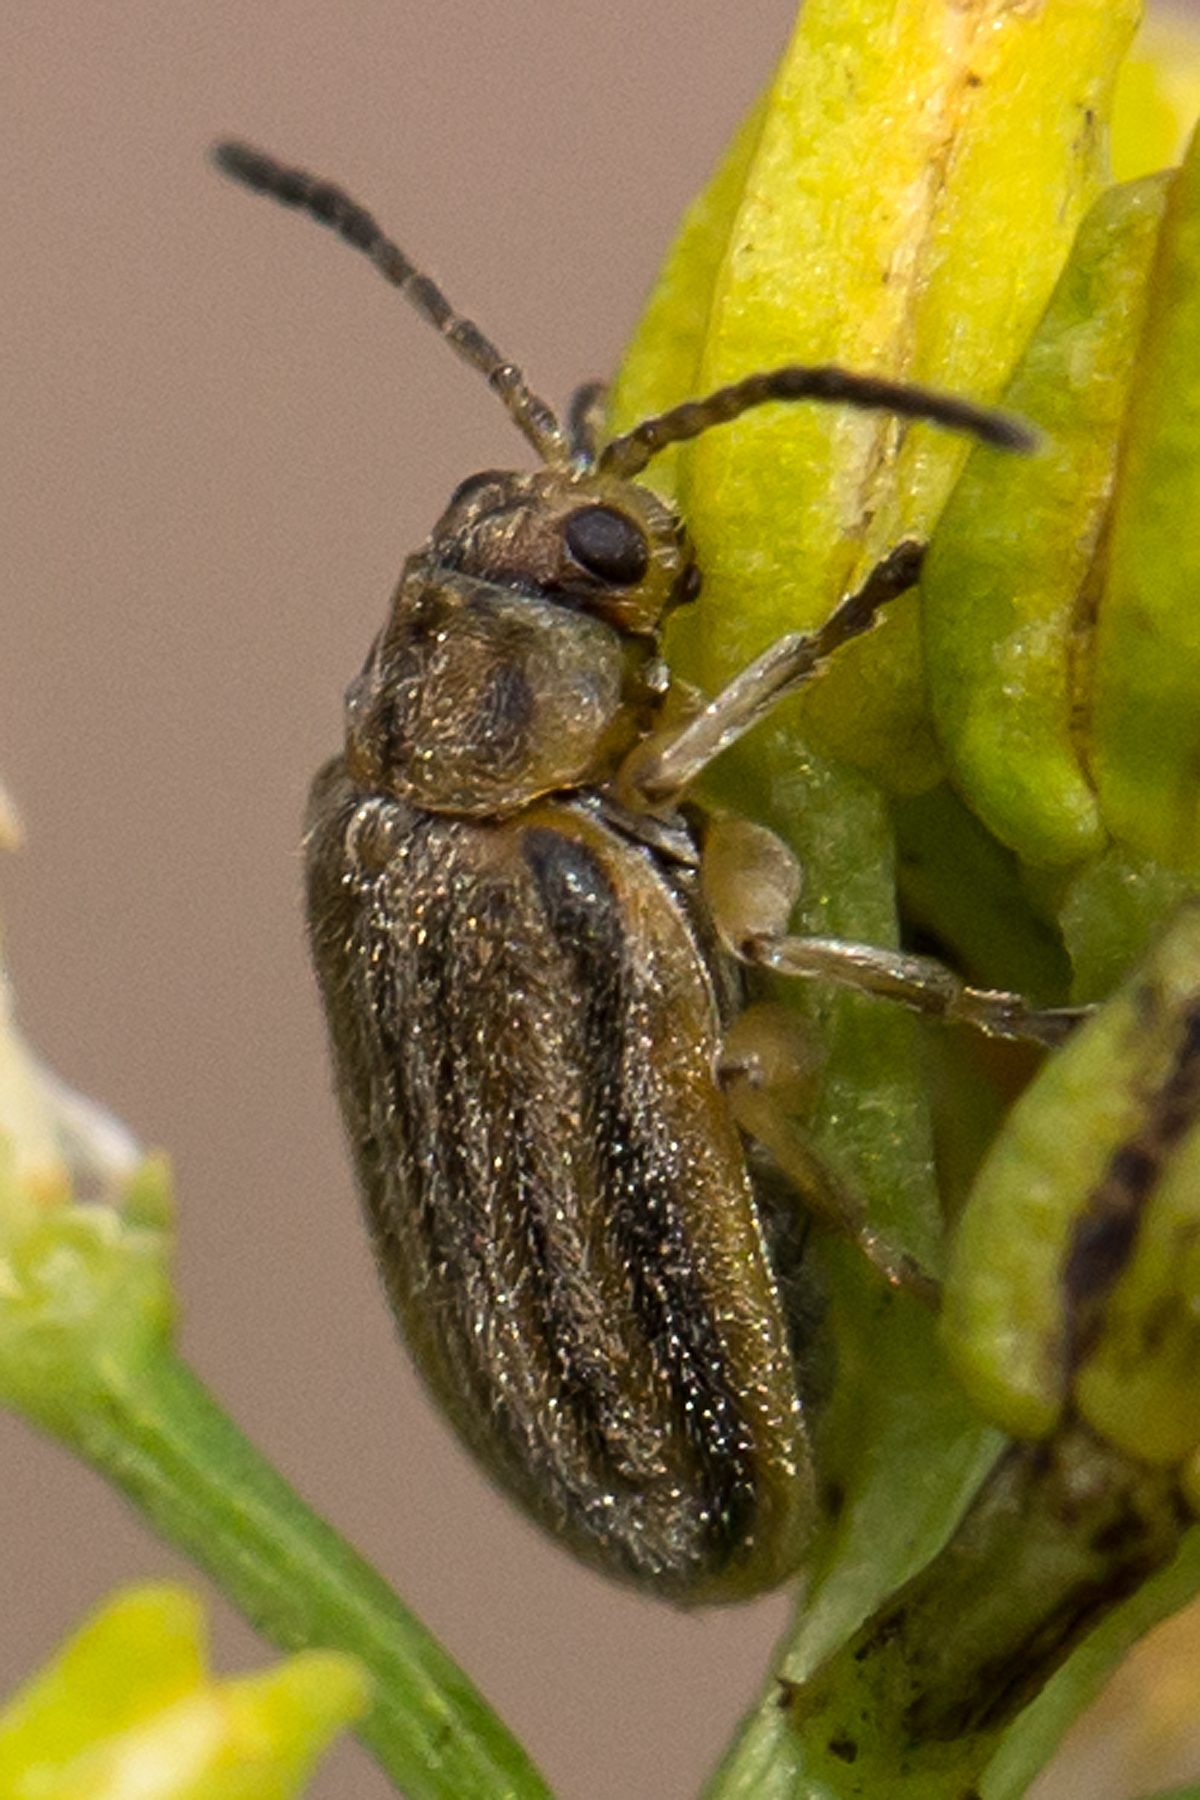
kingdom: Animalia
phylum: Arthropoda
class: Insecta
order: Coleoptera
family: Chrysomelidae
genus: Ophraella
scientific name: Ophraella communa
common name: Ragweed leaf beetle
